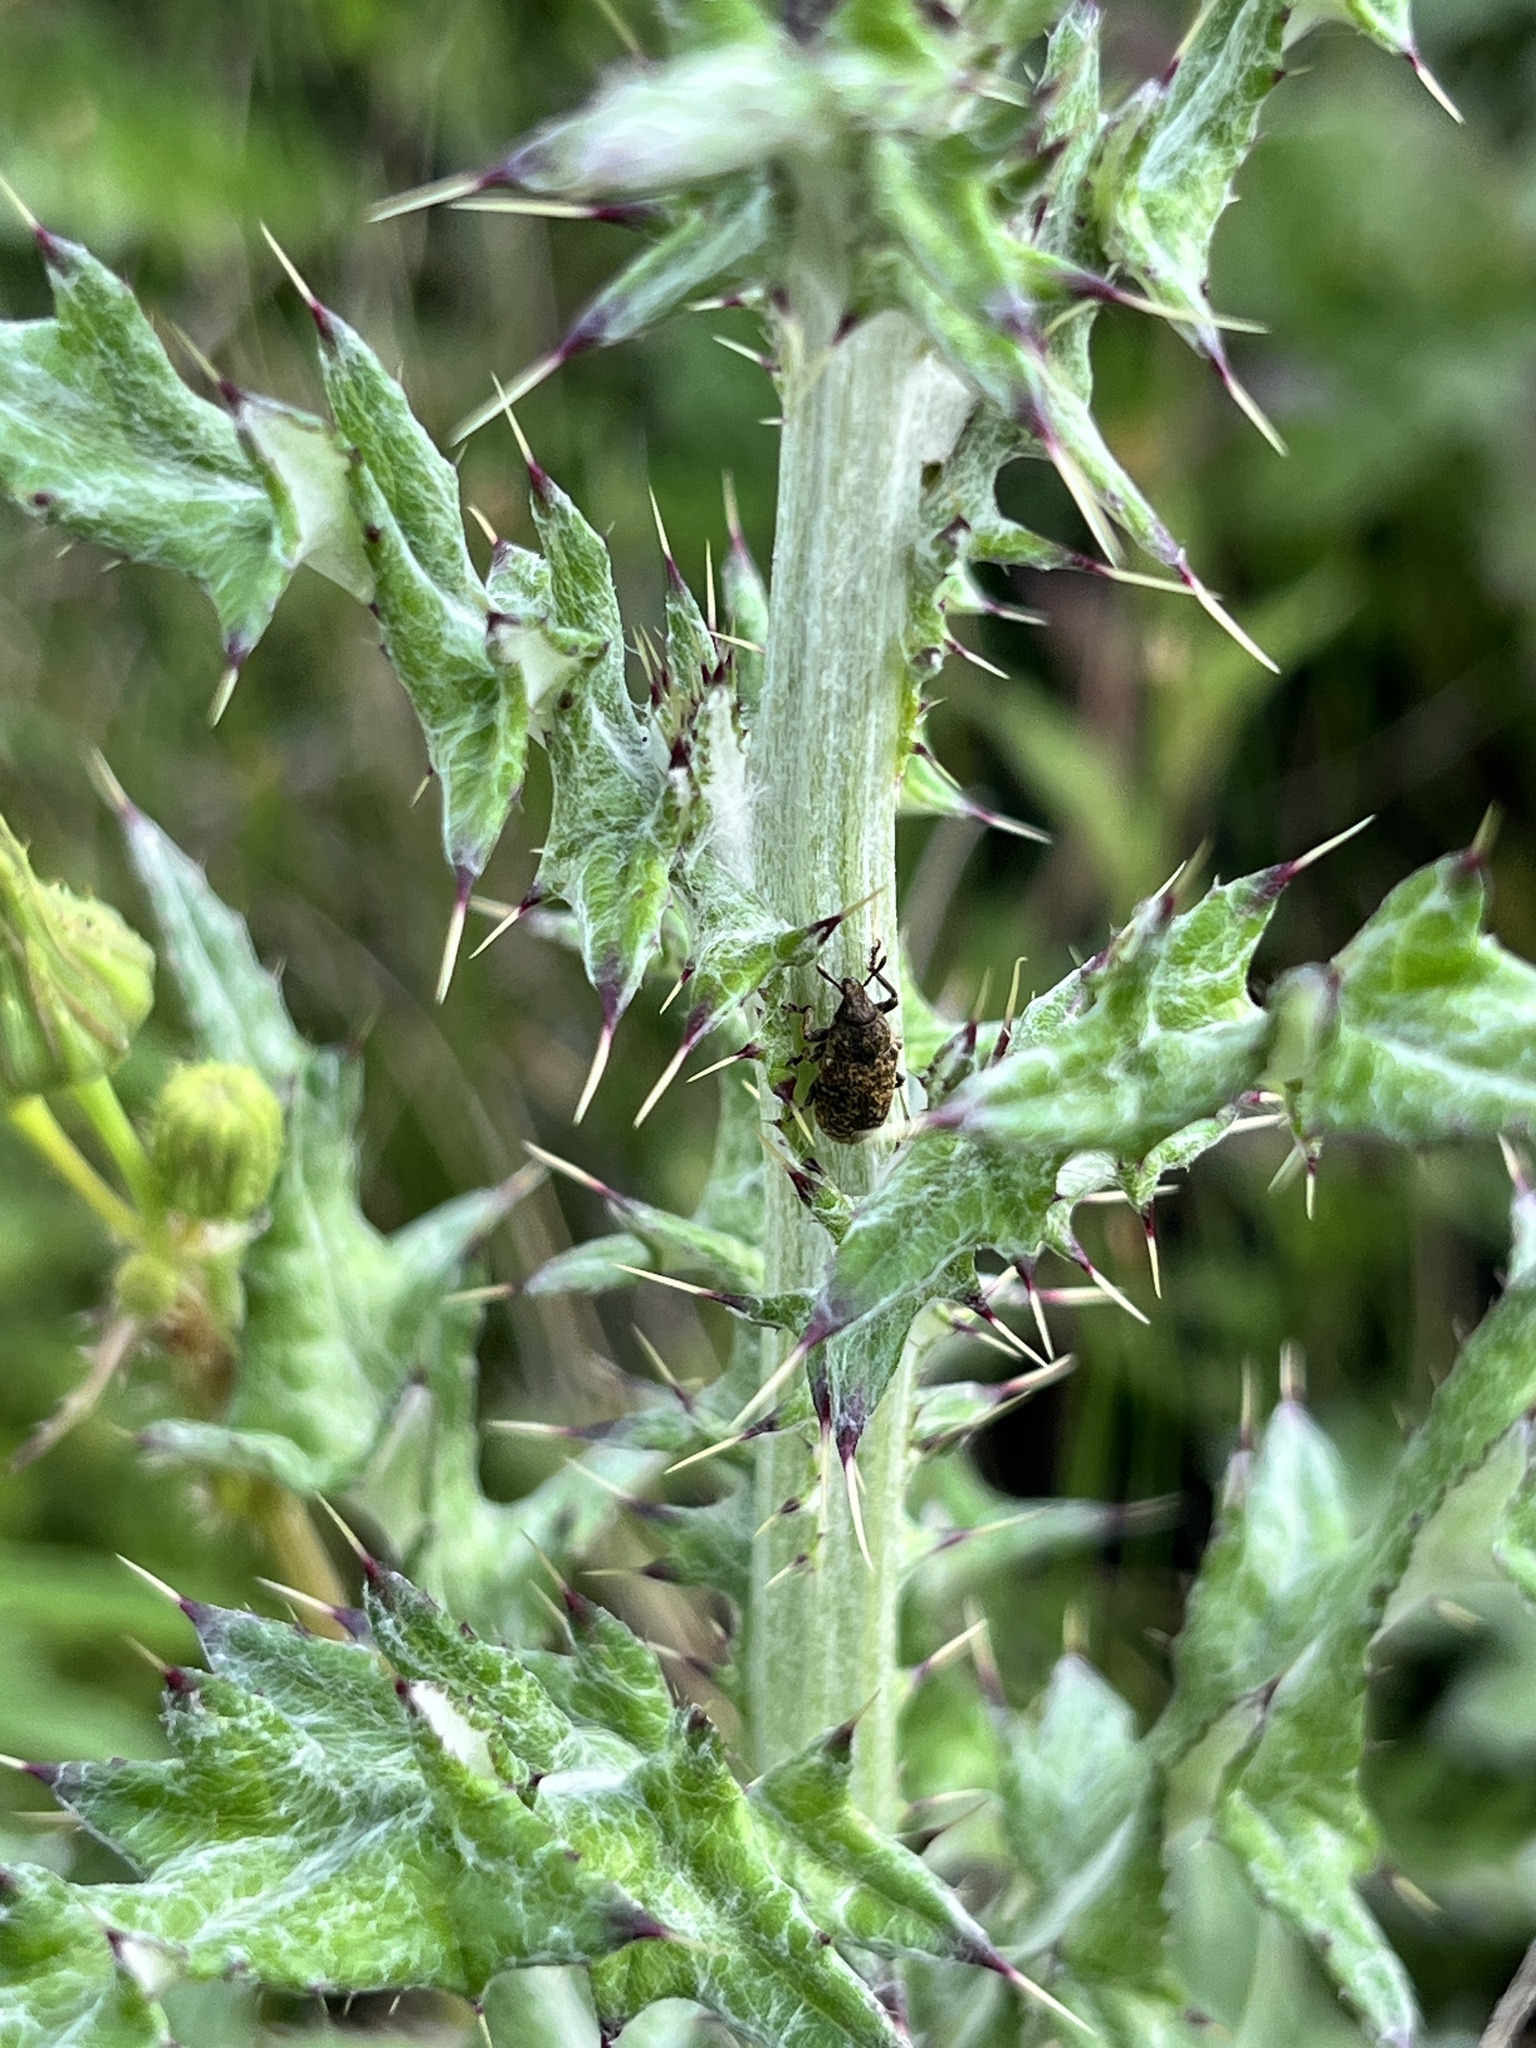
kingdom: Animalia
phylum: Arthropoda
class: Insecta
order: Coleoptera
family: Curculionidae
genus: Rhinocyllus
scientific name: Rhinocyllus conicus
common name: Weevil
